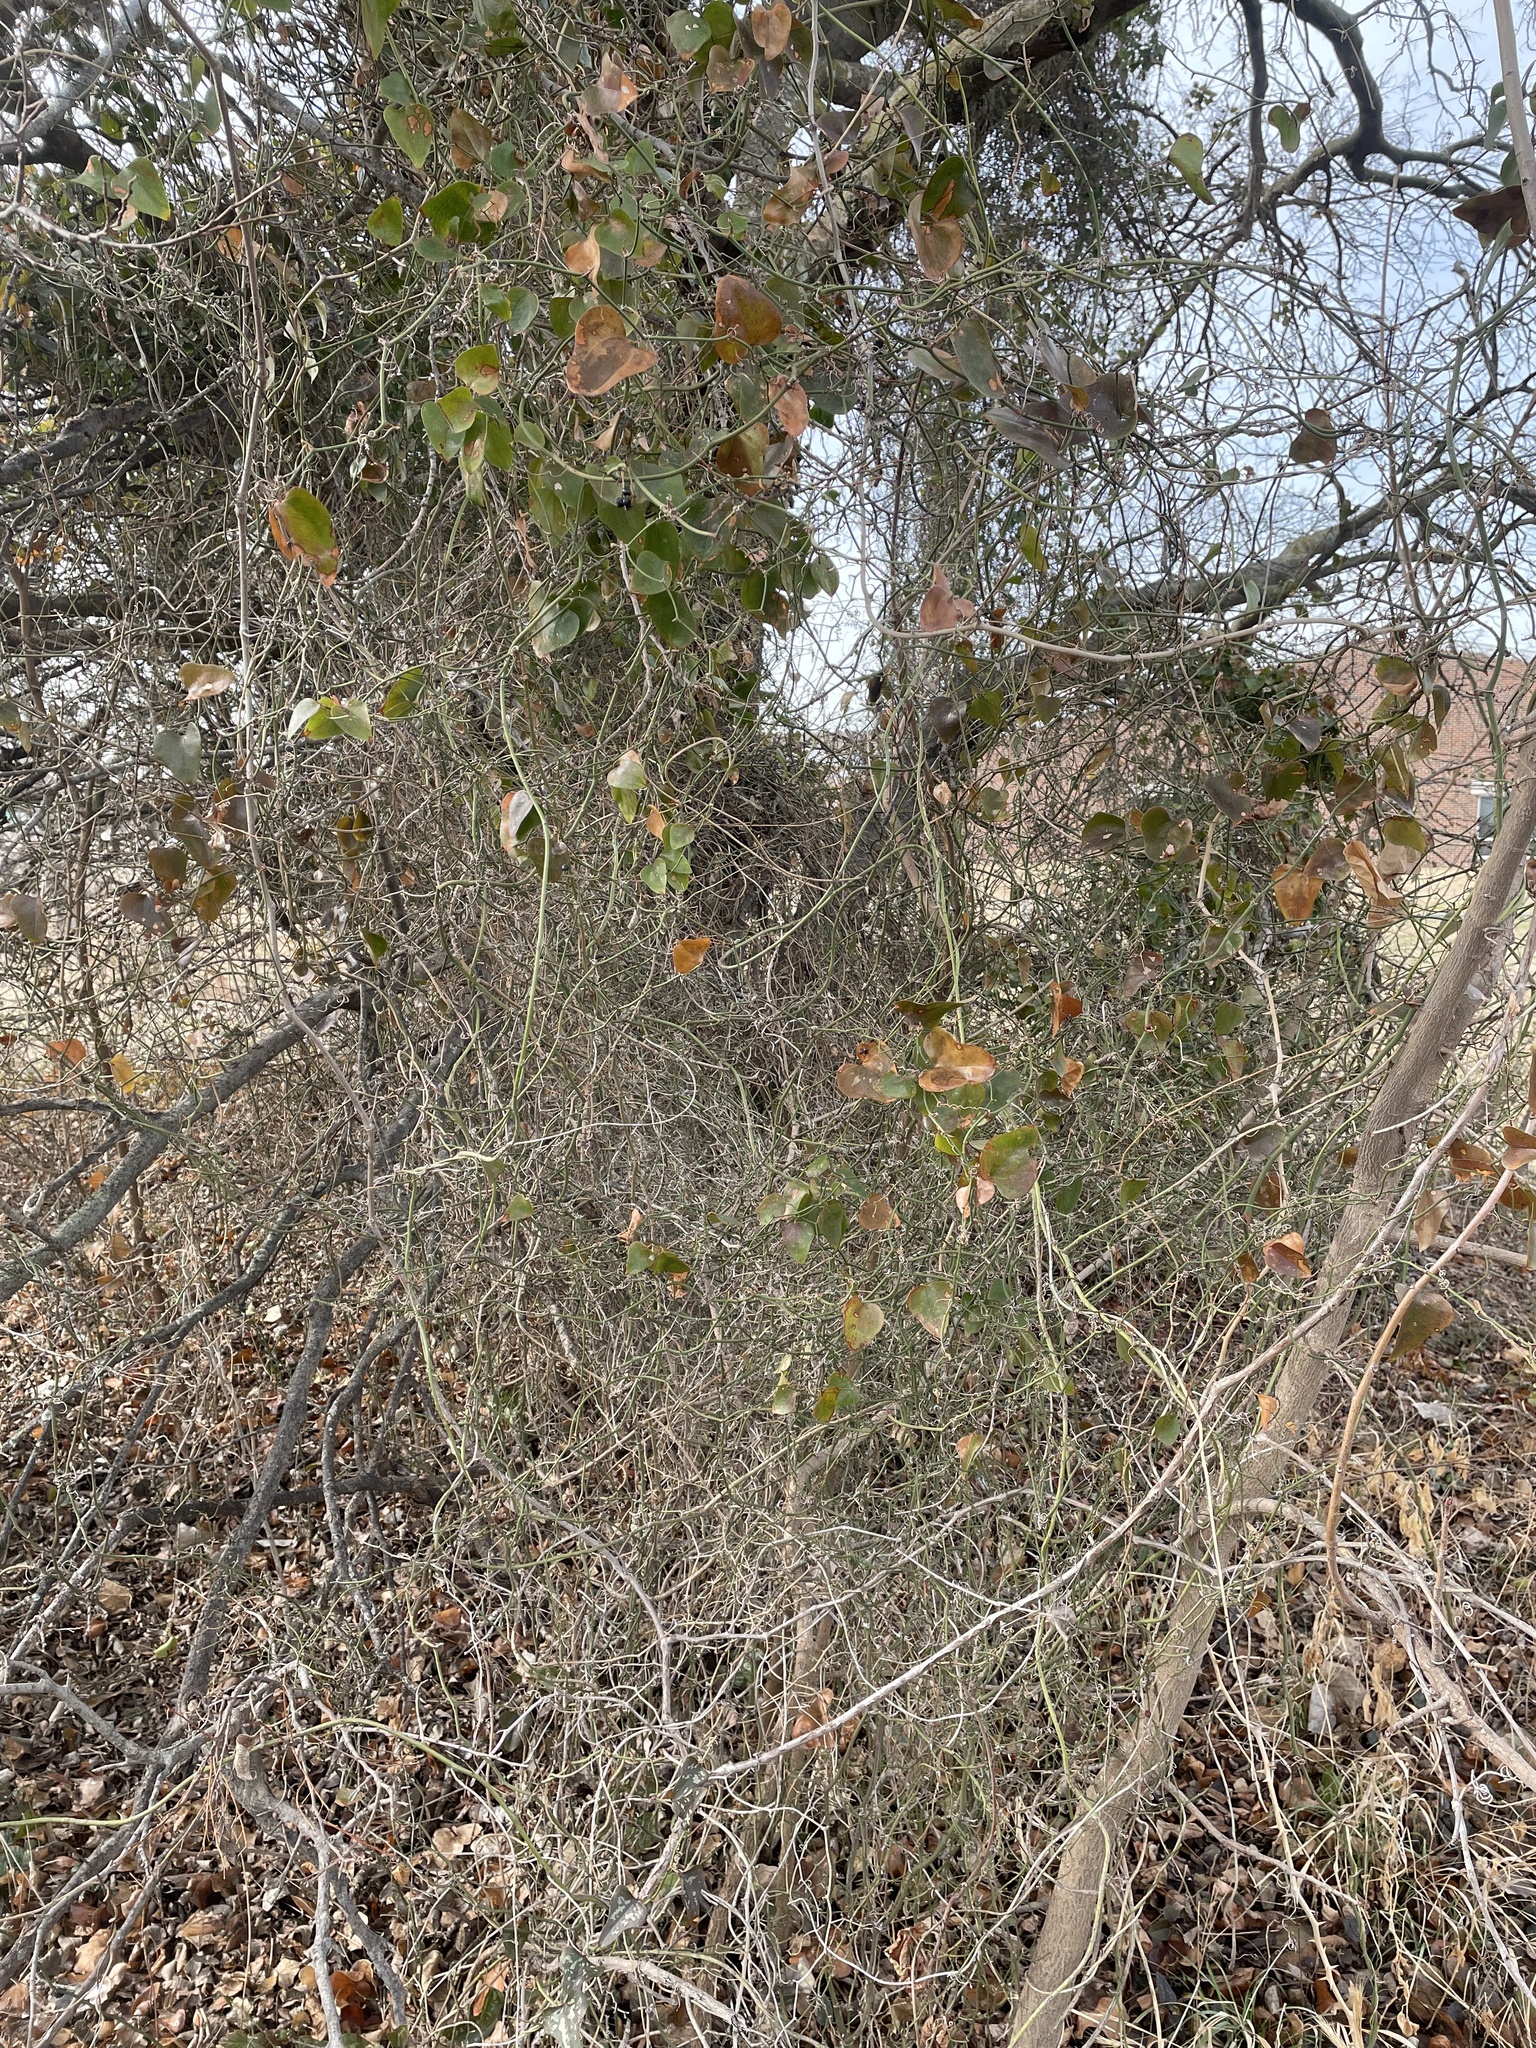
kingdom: Plantae
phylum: Tracheophyta
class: Liliopsida
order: Liliales
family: Smilacaceae
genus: Smilax
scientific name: Smilax bona-nox
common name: Catbrier
